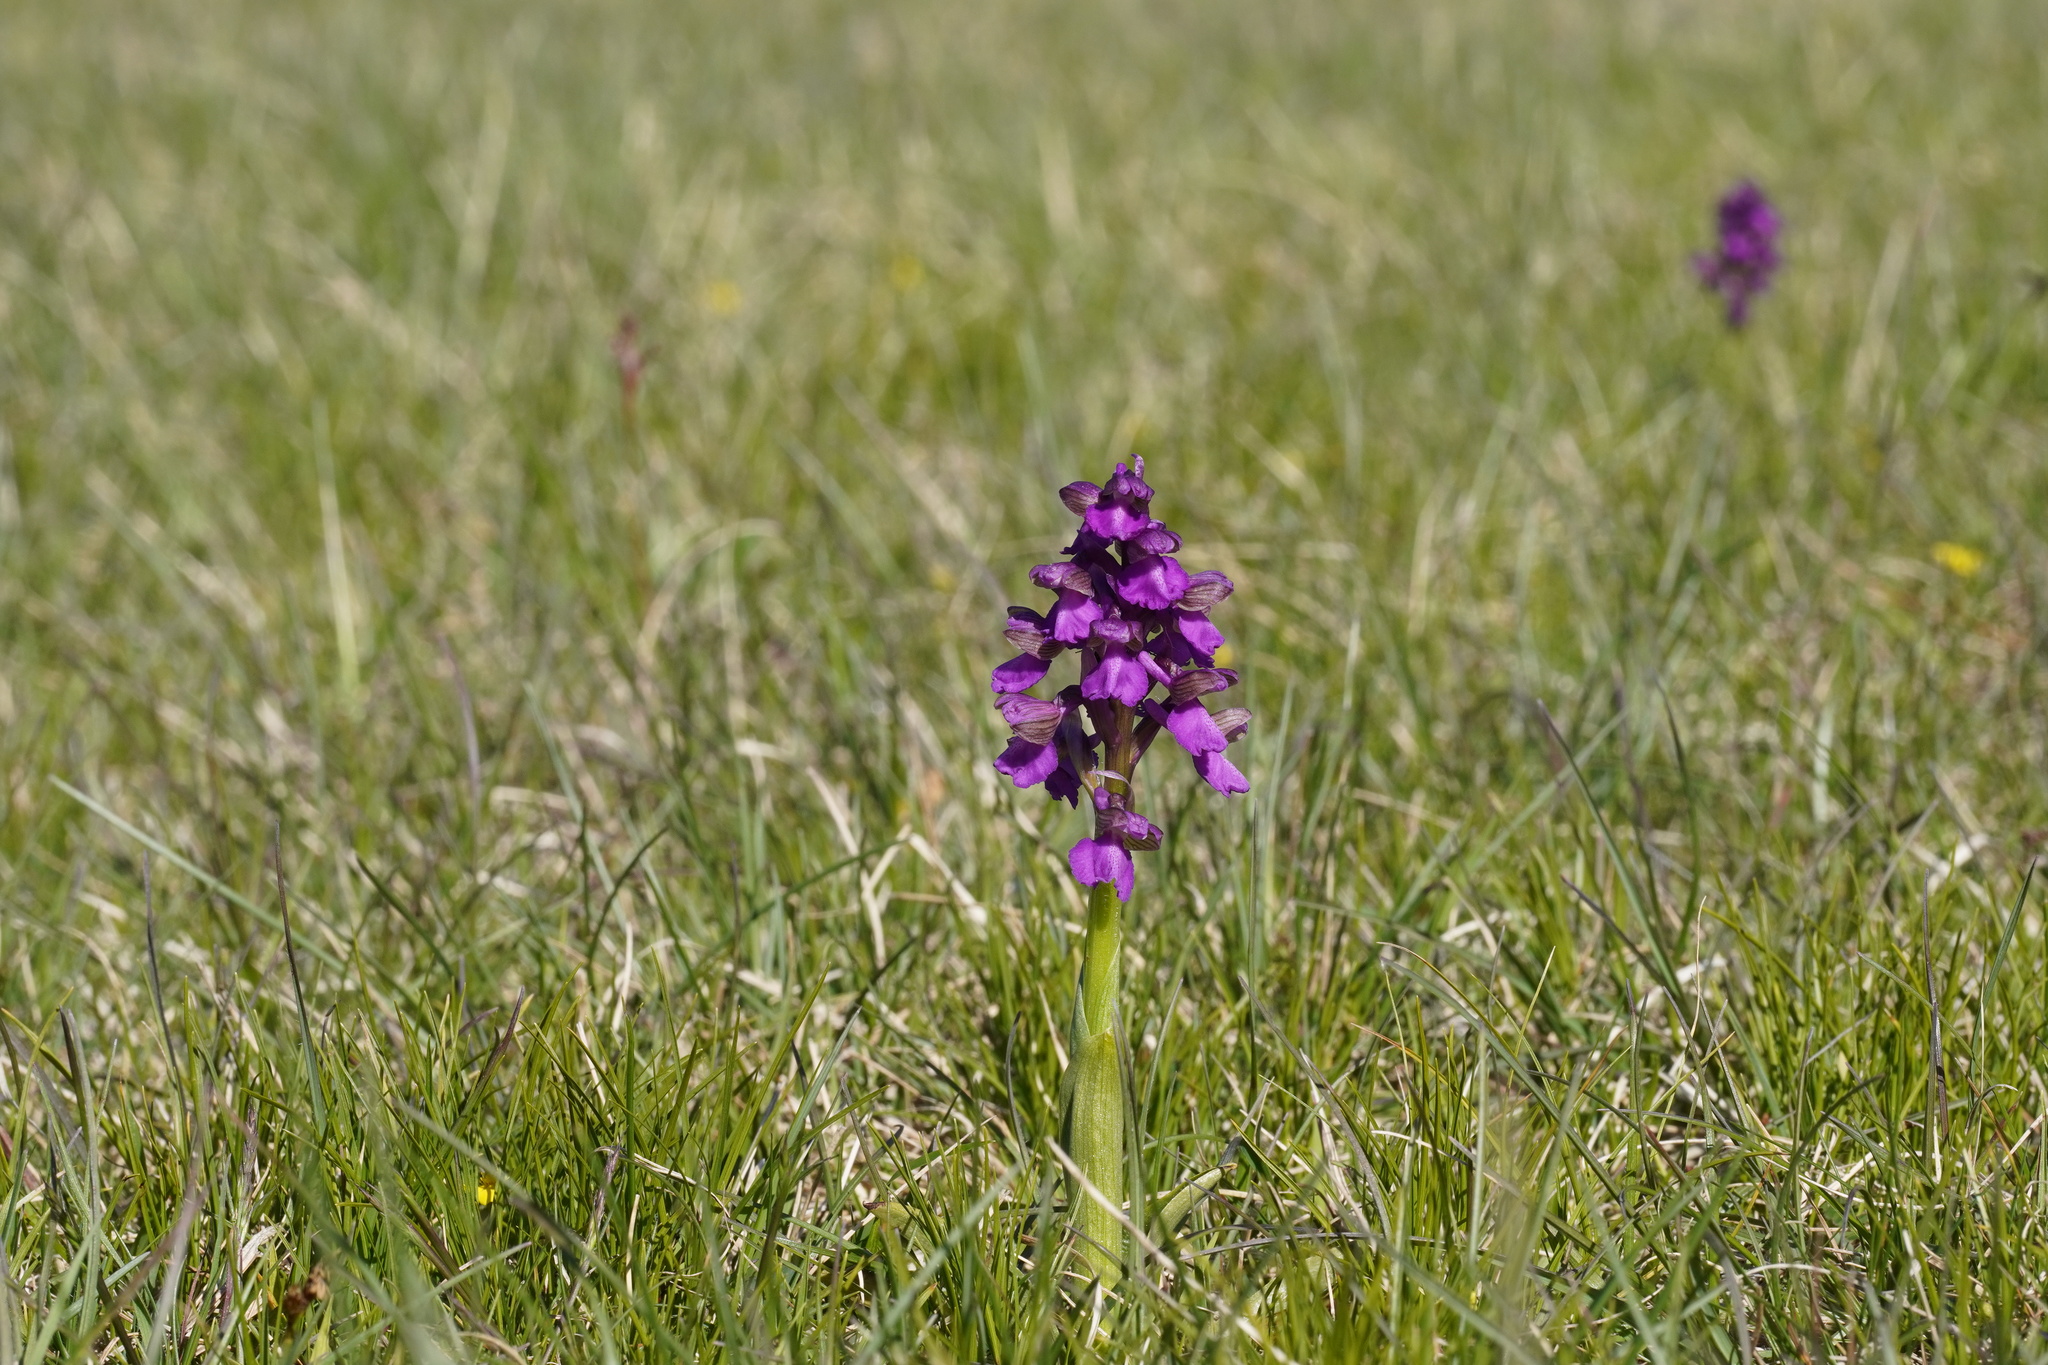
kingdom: Plantae
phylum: Tracheophyta
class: Liliopsida
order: Asparagales
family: Orchidaceae
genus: Anacamptis
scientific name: Anacamptis morio
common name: Green-winged orchid
